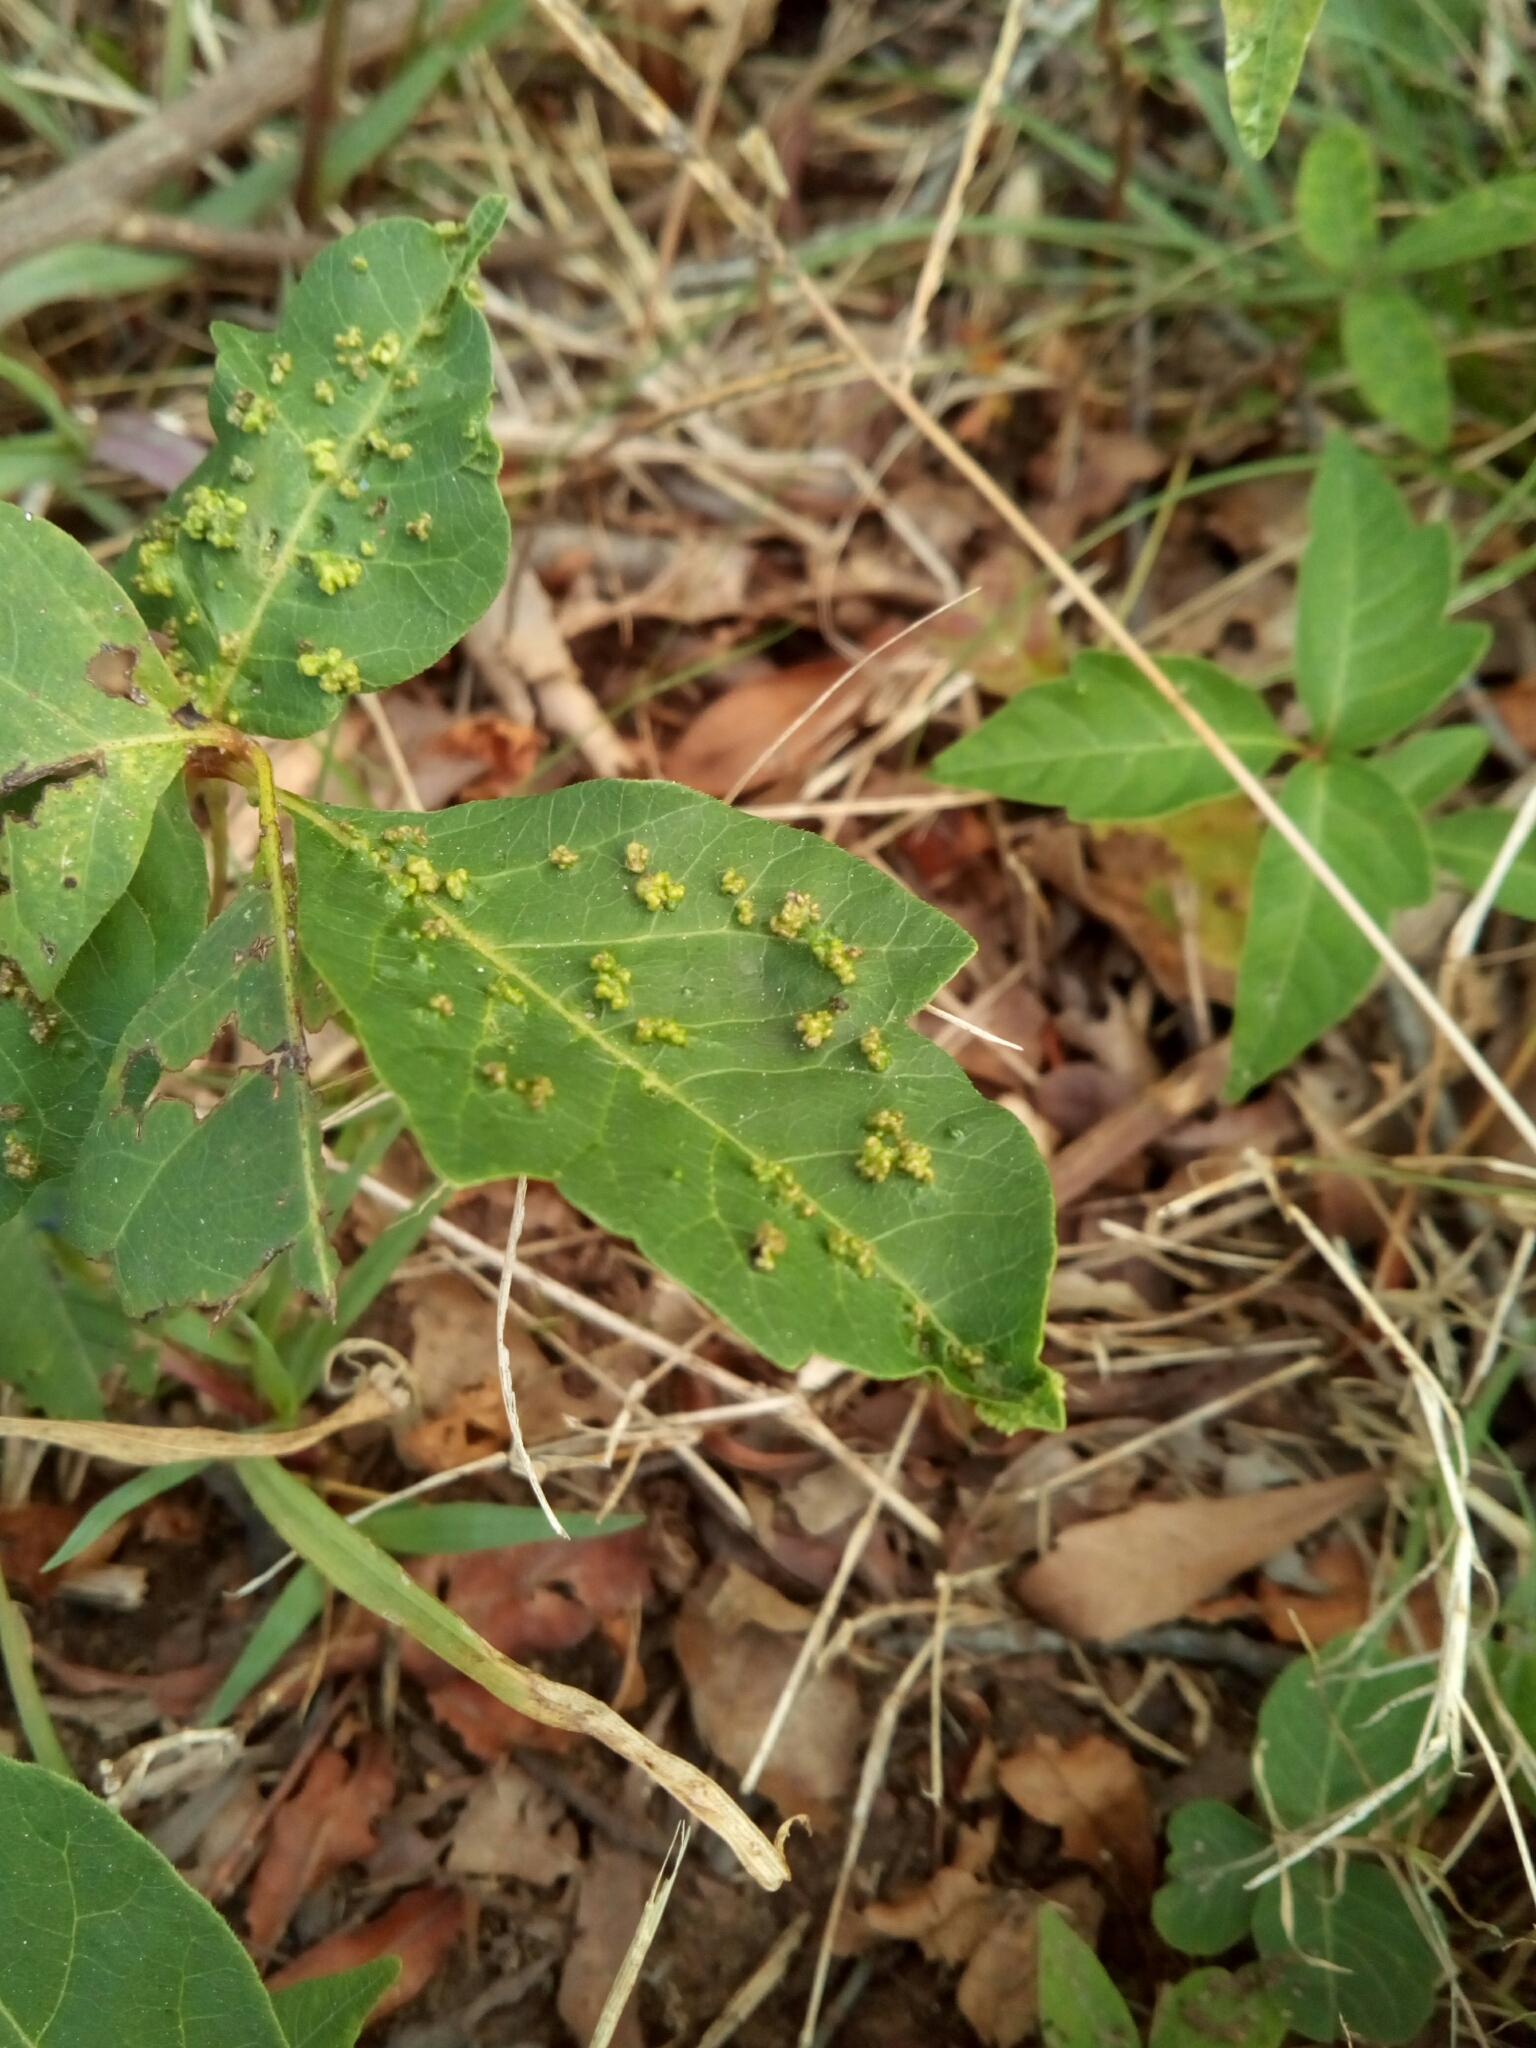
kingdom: Animalia
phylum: Arthropoda
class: Arachnida
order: Trombidiformes
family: Eriophyidae
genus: Aculops
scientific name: Aculops
